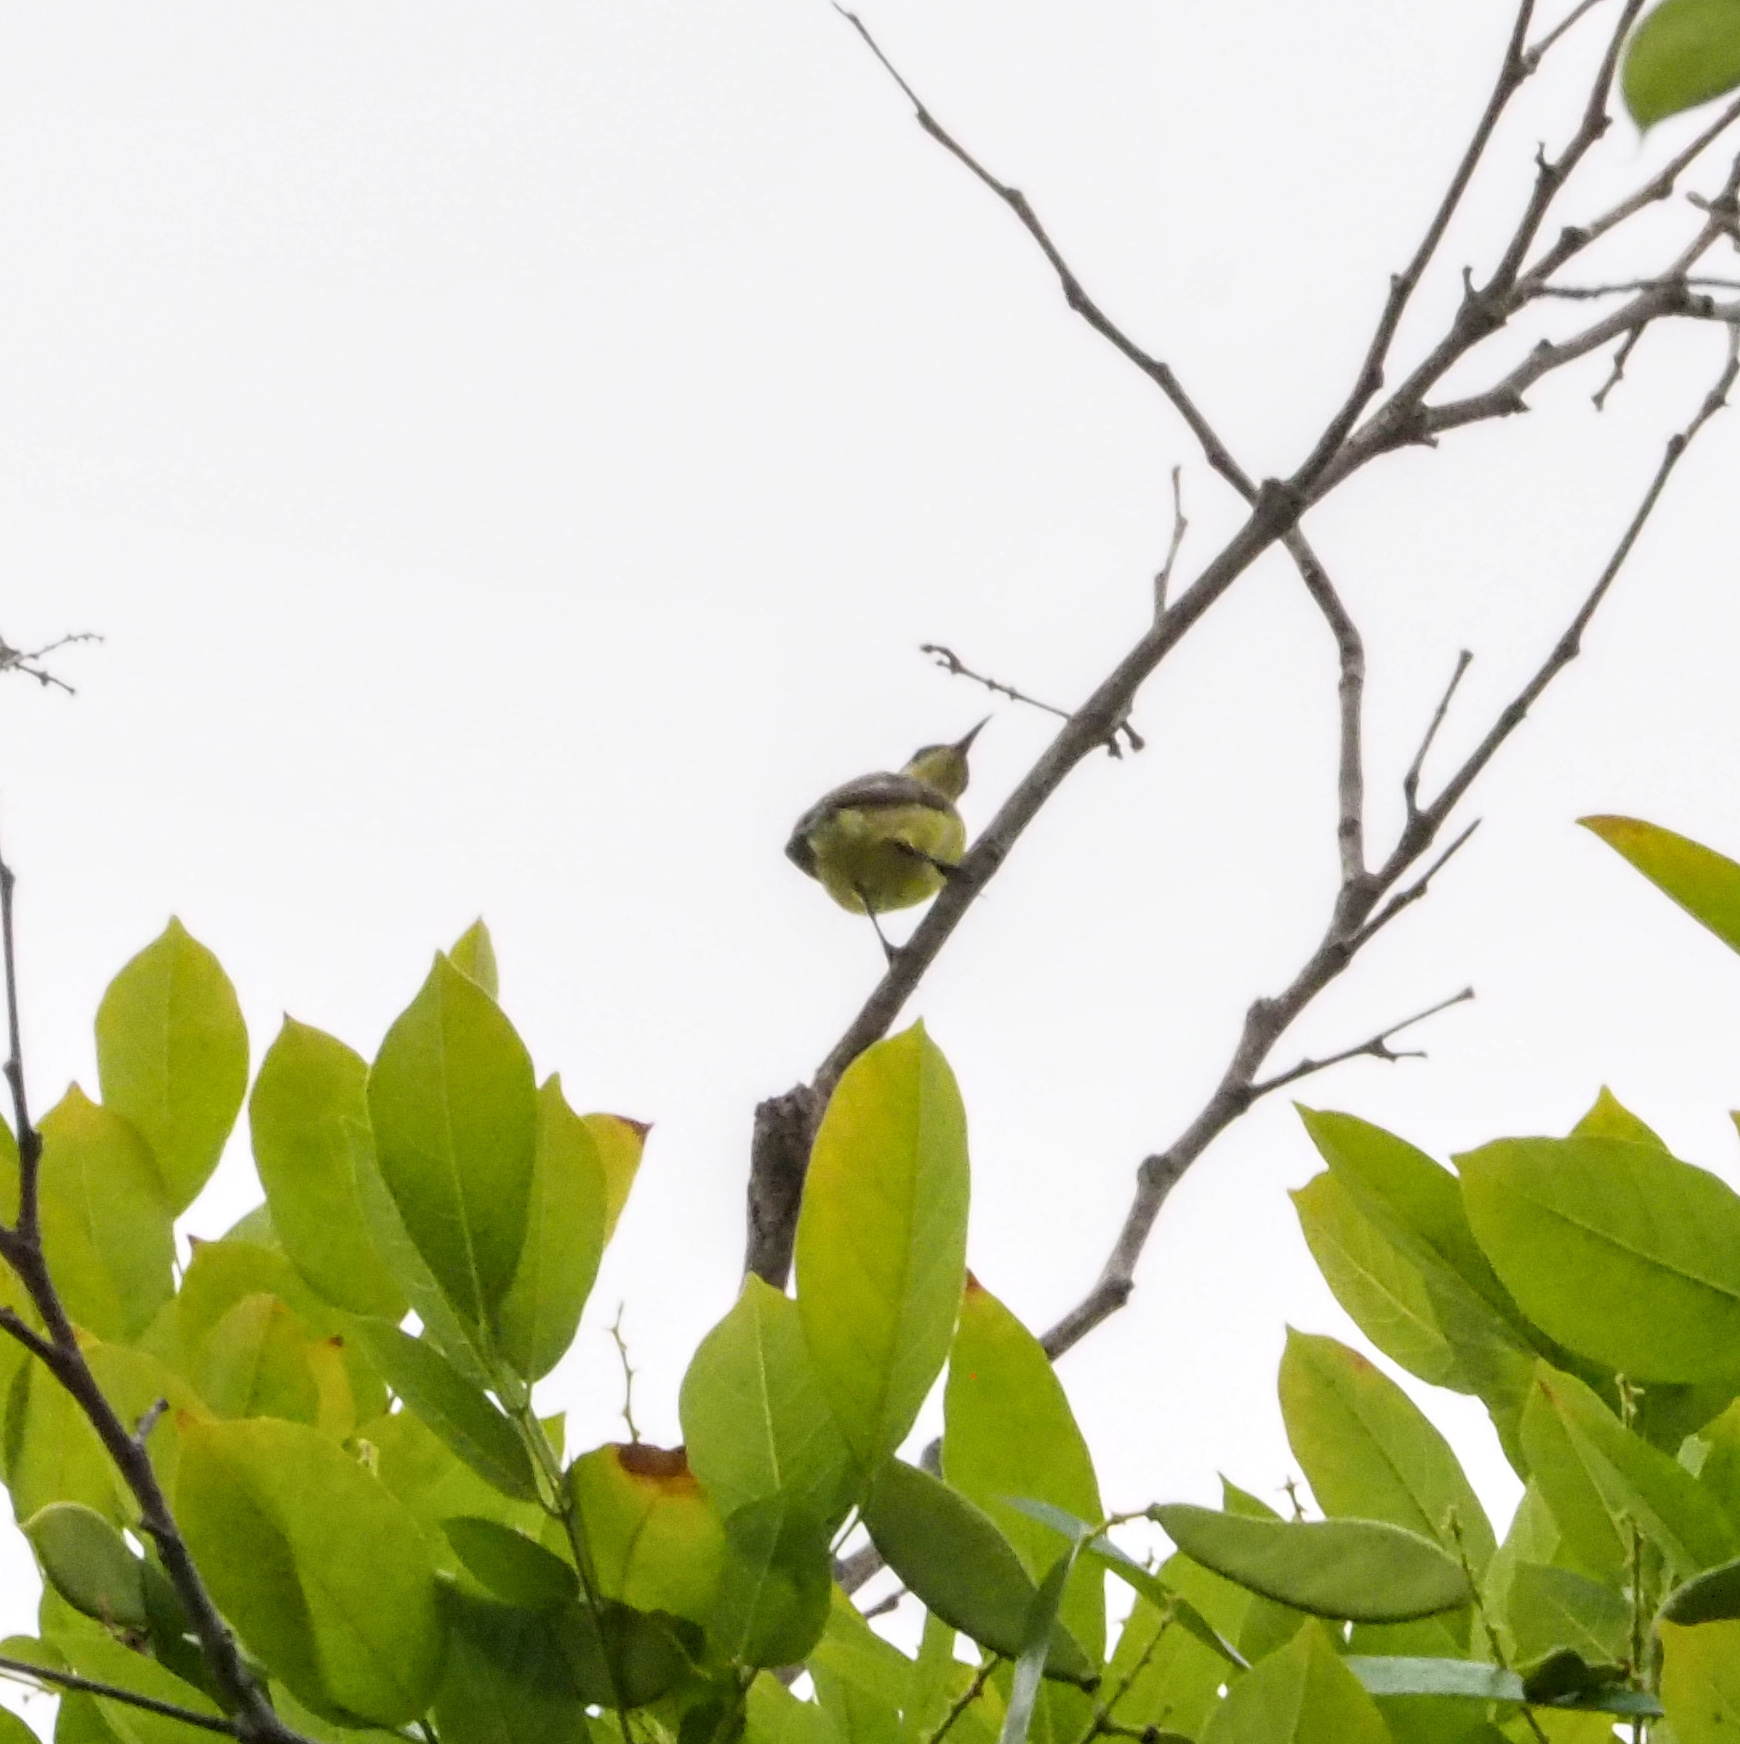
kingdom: Animalia
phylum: Chordata
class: Aves
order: Passeriformes
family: Nectariniidae
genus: Cinnyris
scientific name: Cinnyris
